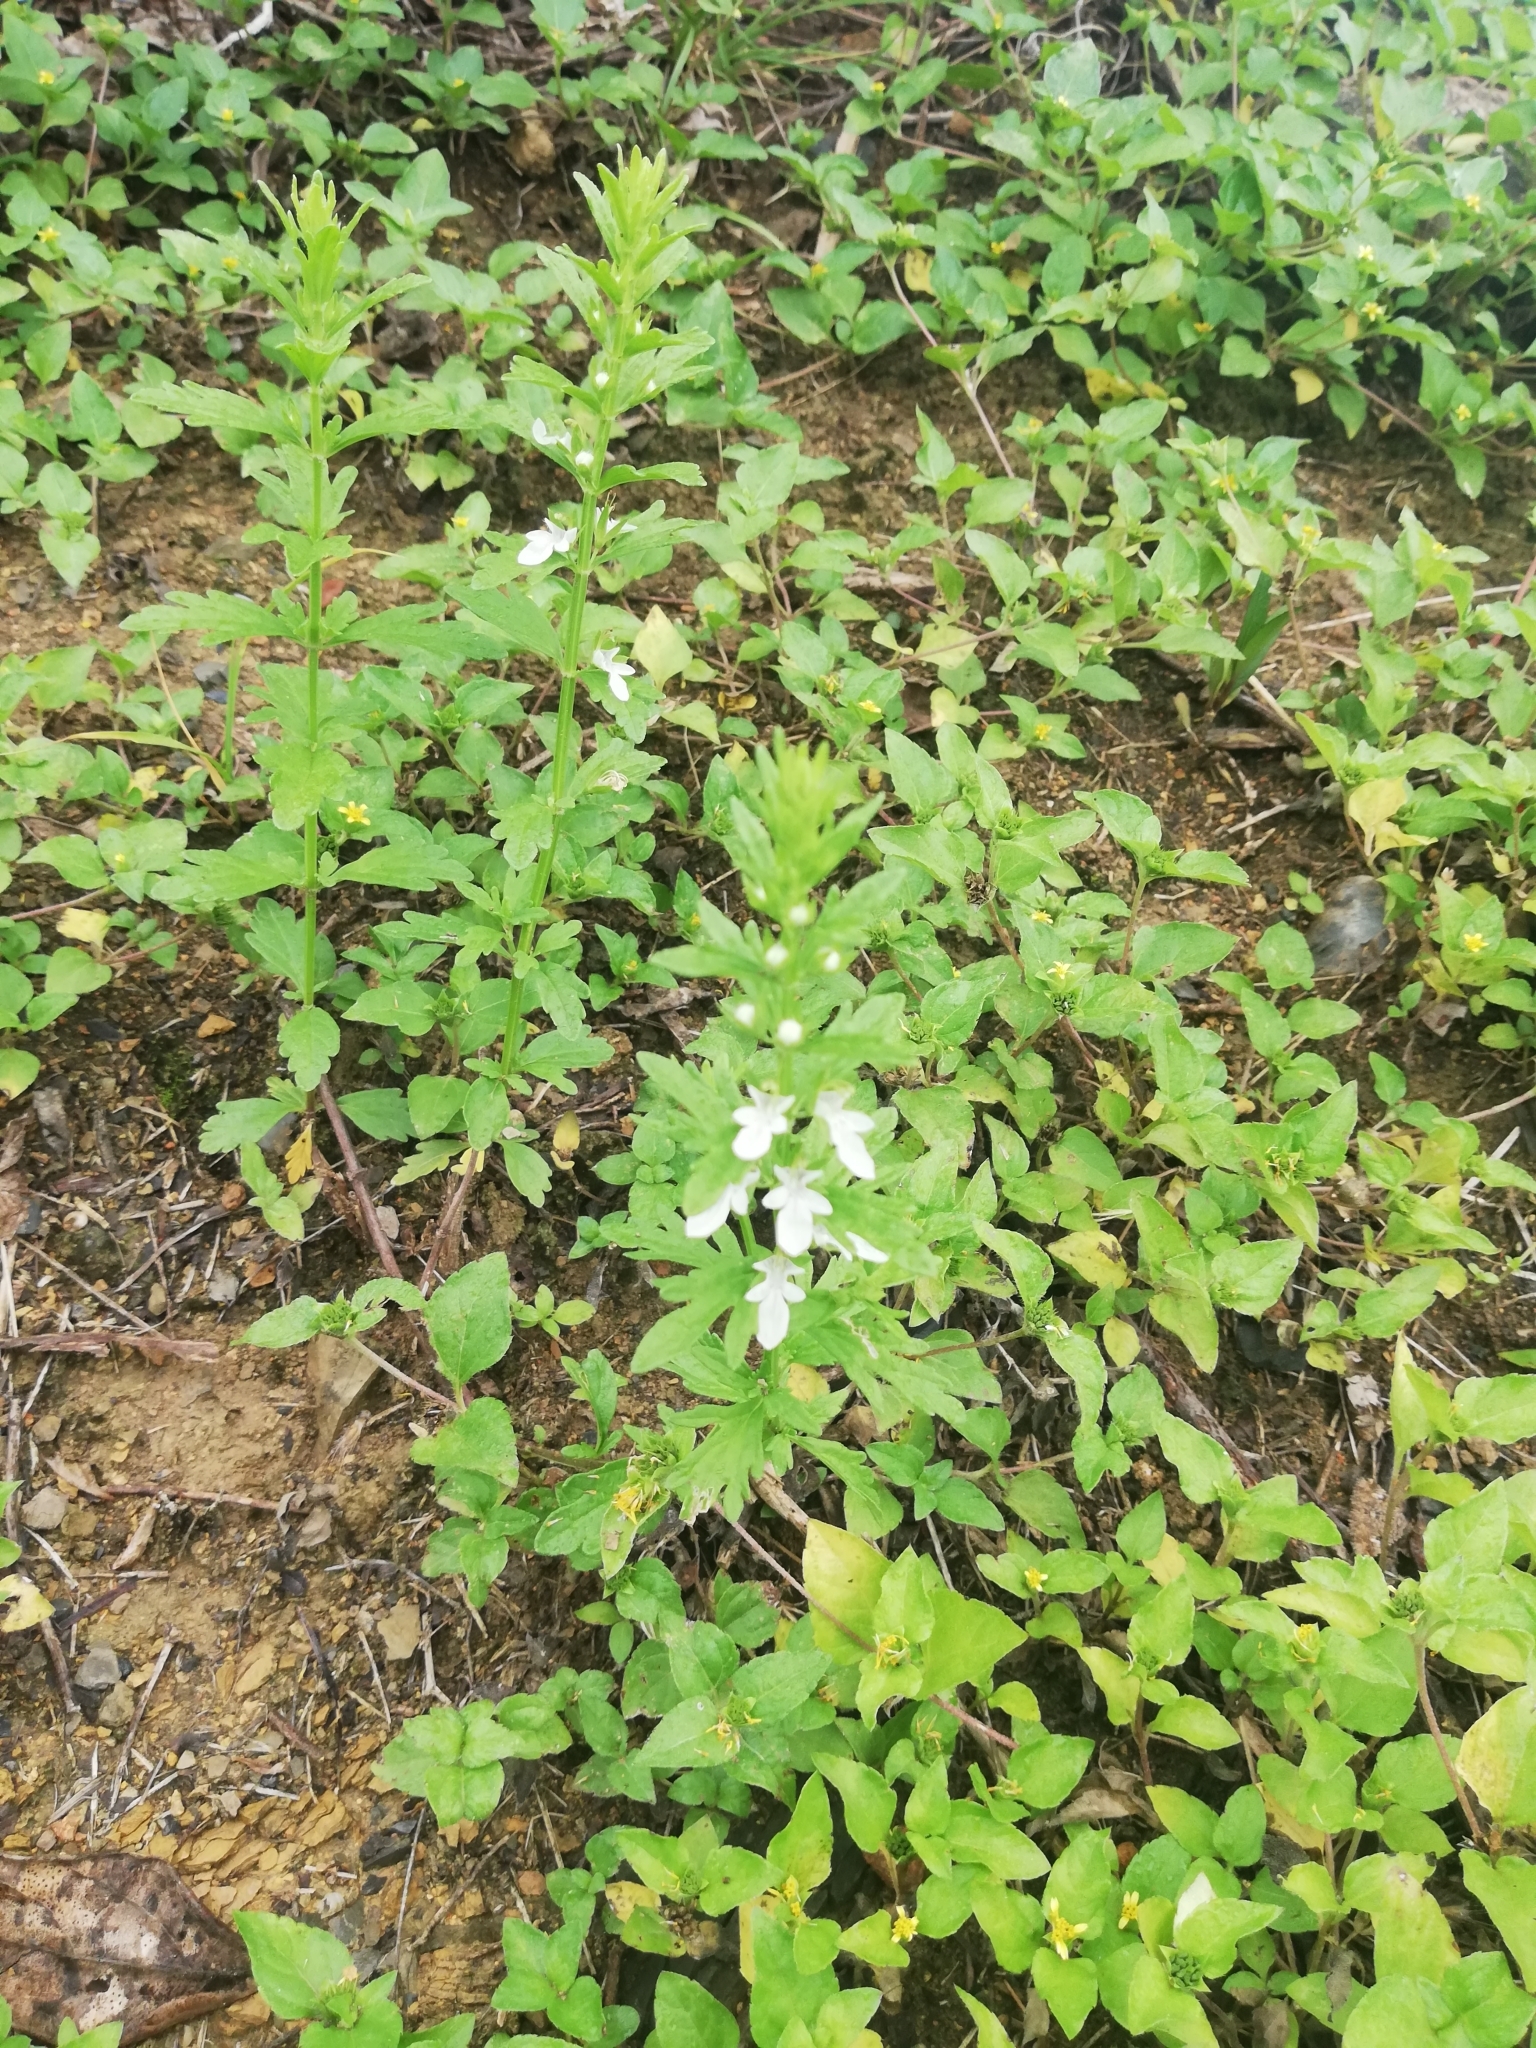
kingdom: Plantae
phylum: Tracheophyta
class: Magnoliopsida
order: Lamiales
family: Lamiaceae
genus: Teucrium
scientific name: Teucrium cubense
